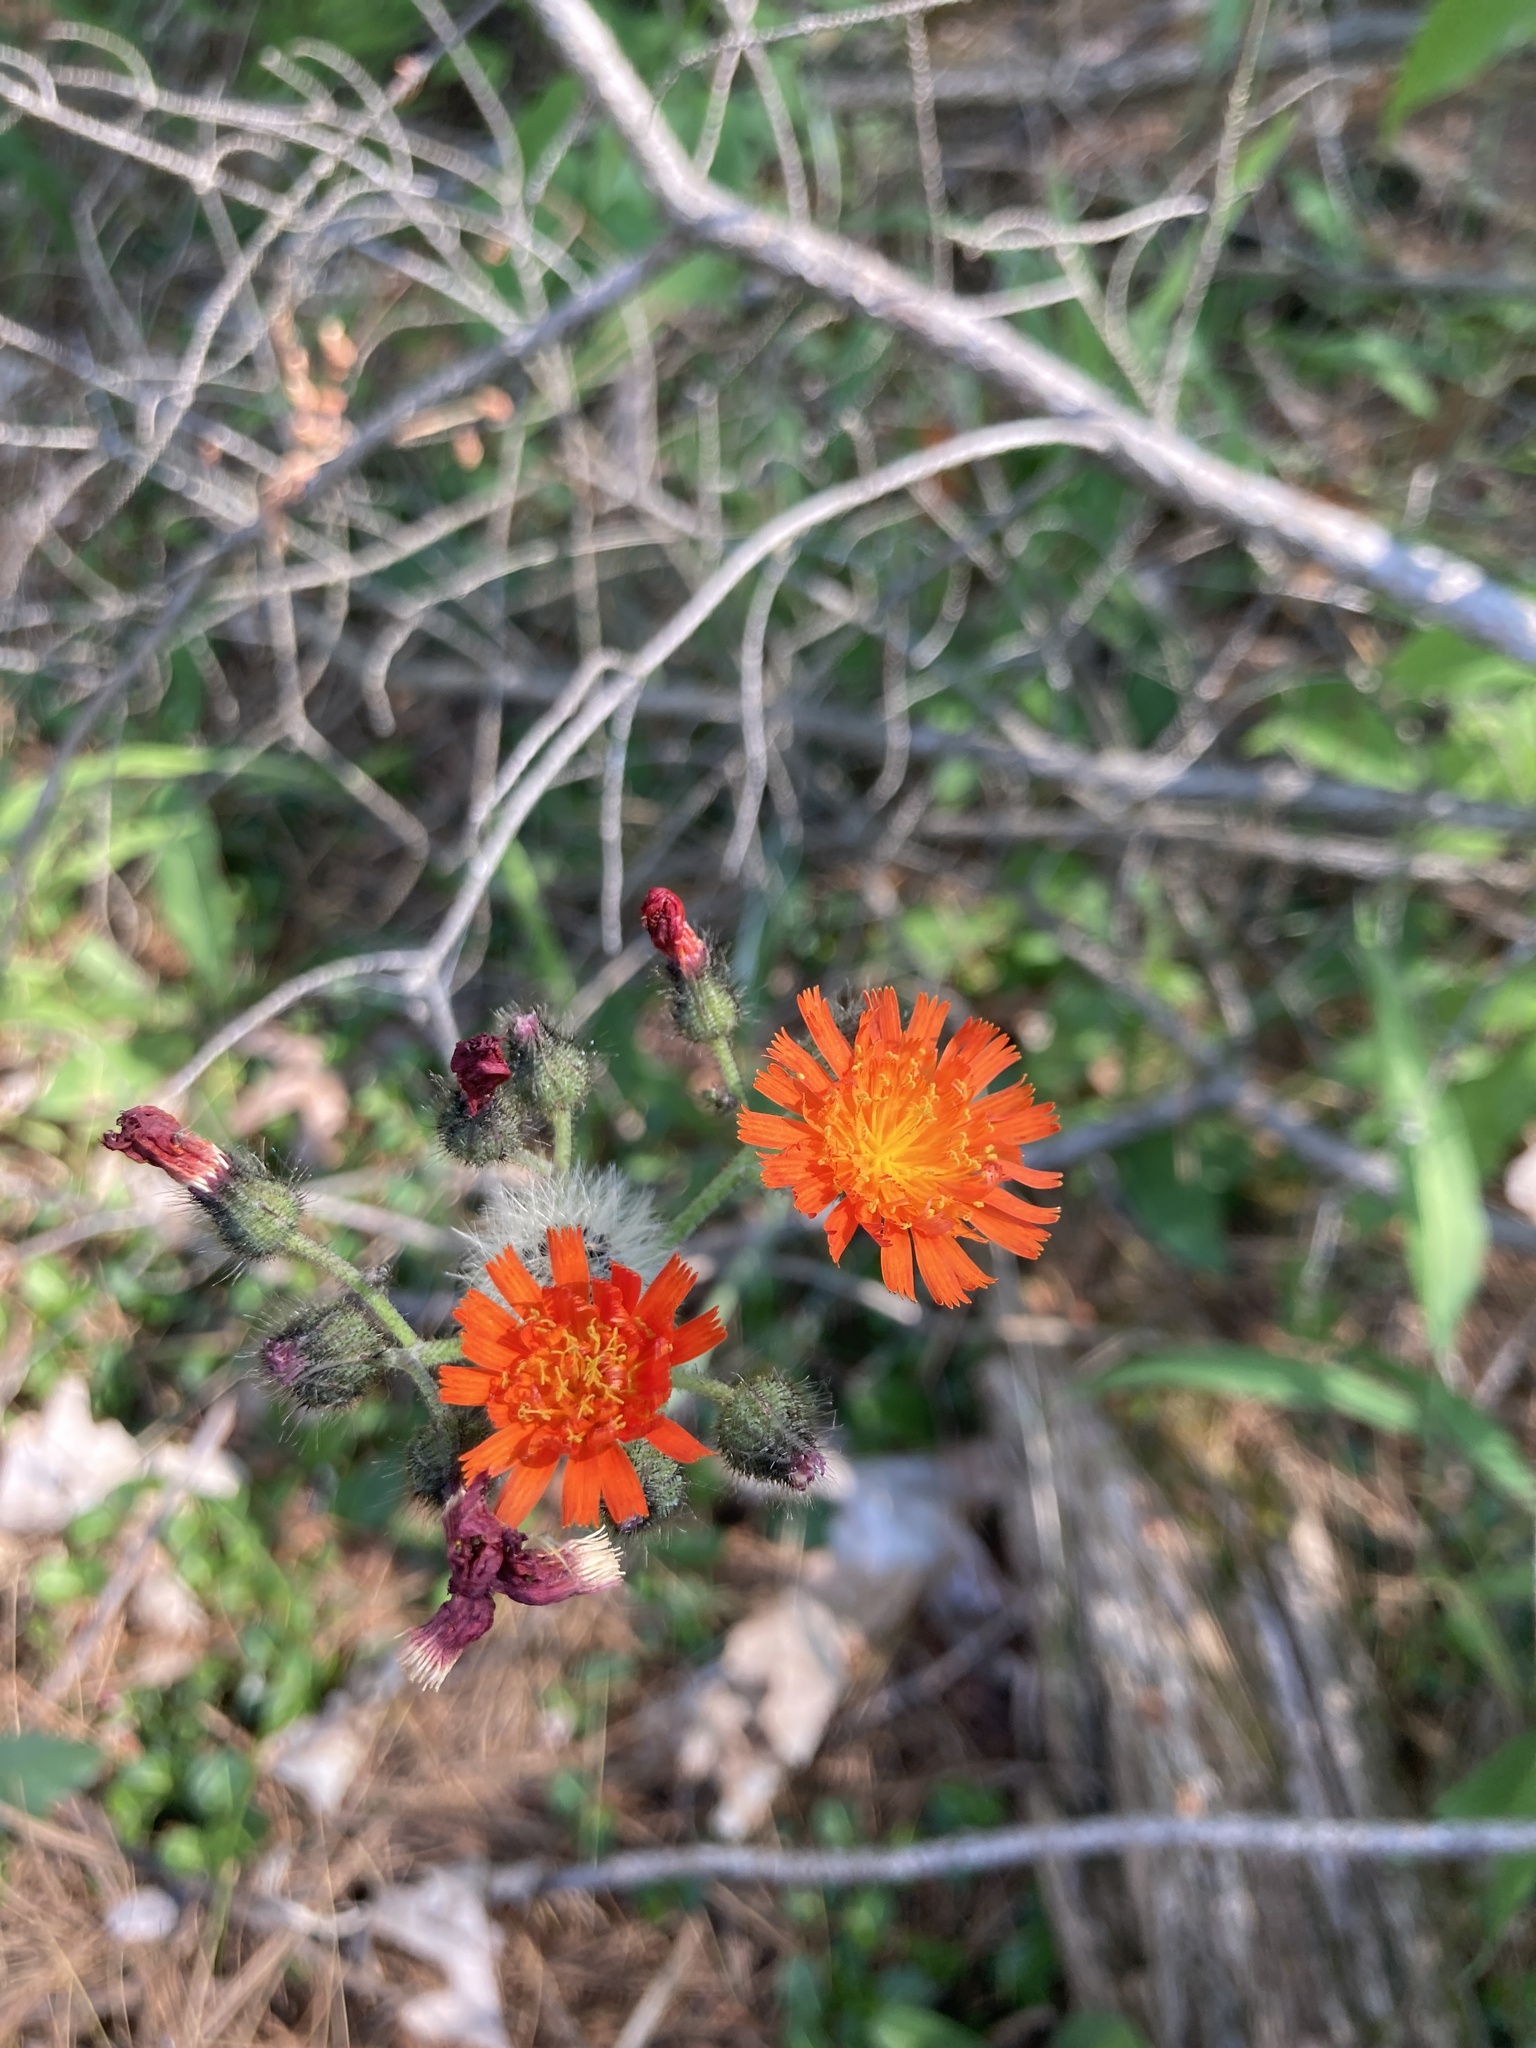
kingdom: Plantae
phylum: Tracheophyta
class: Magnoliopsida
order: Asterales
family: Asteraceae
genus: Pilosella
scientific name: Pilosella aurantiaca
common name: Fox-and-cubs
